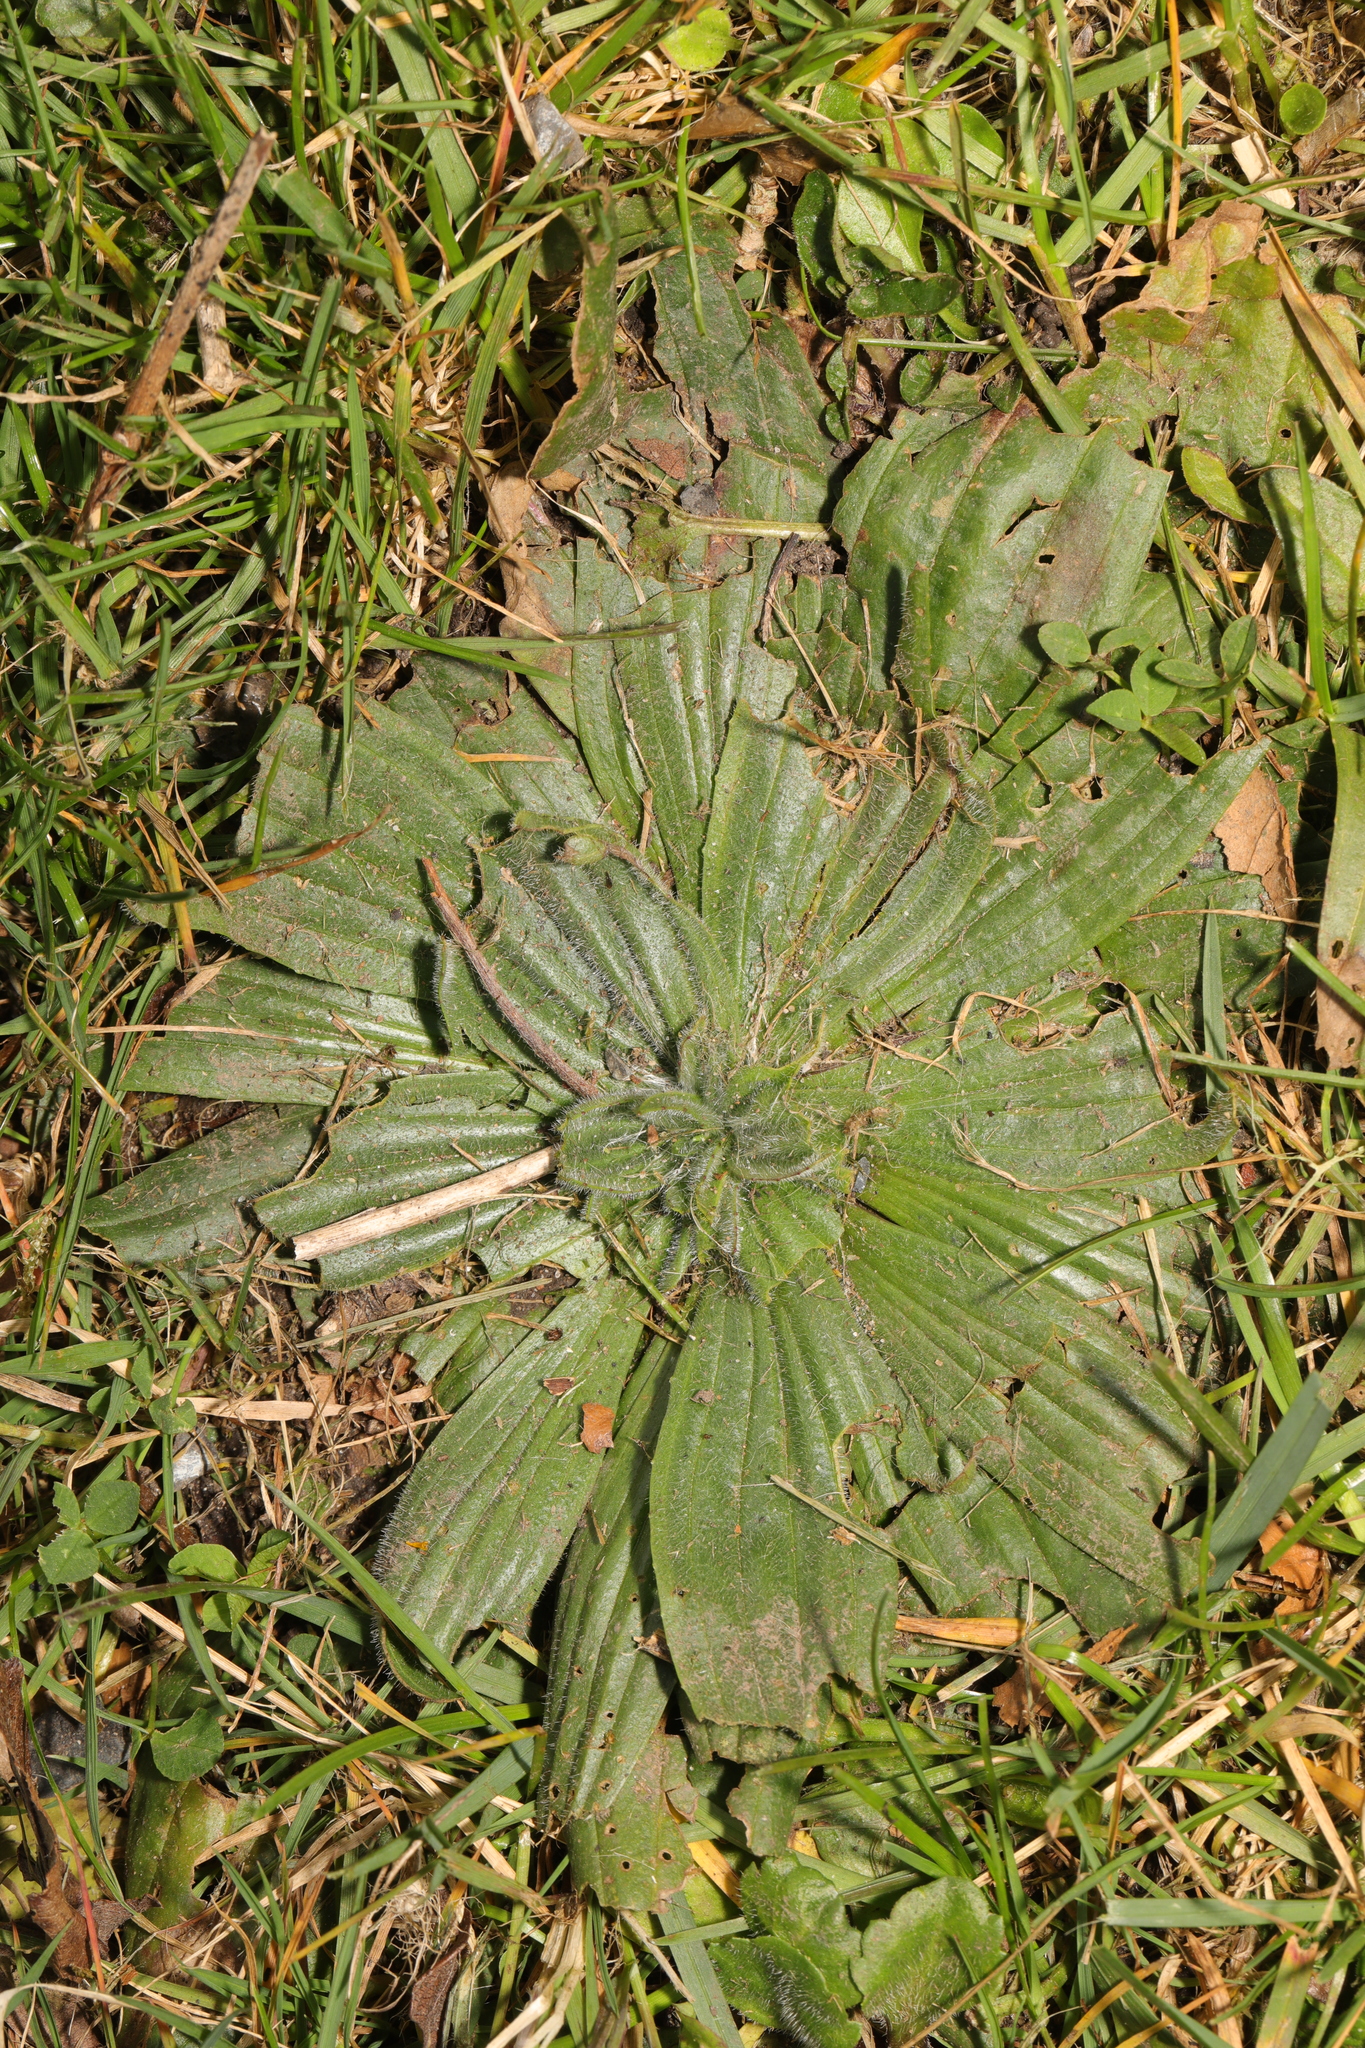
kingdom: Plantae
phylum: Tracheophyta
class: Magnoliopsida
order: Lamiales
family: Plantaginaceae
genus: Plantago
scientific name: Plantago lanceolata
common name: Ribwort plantain
